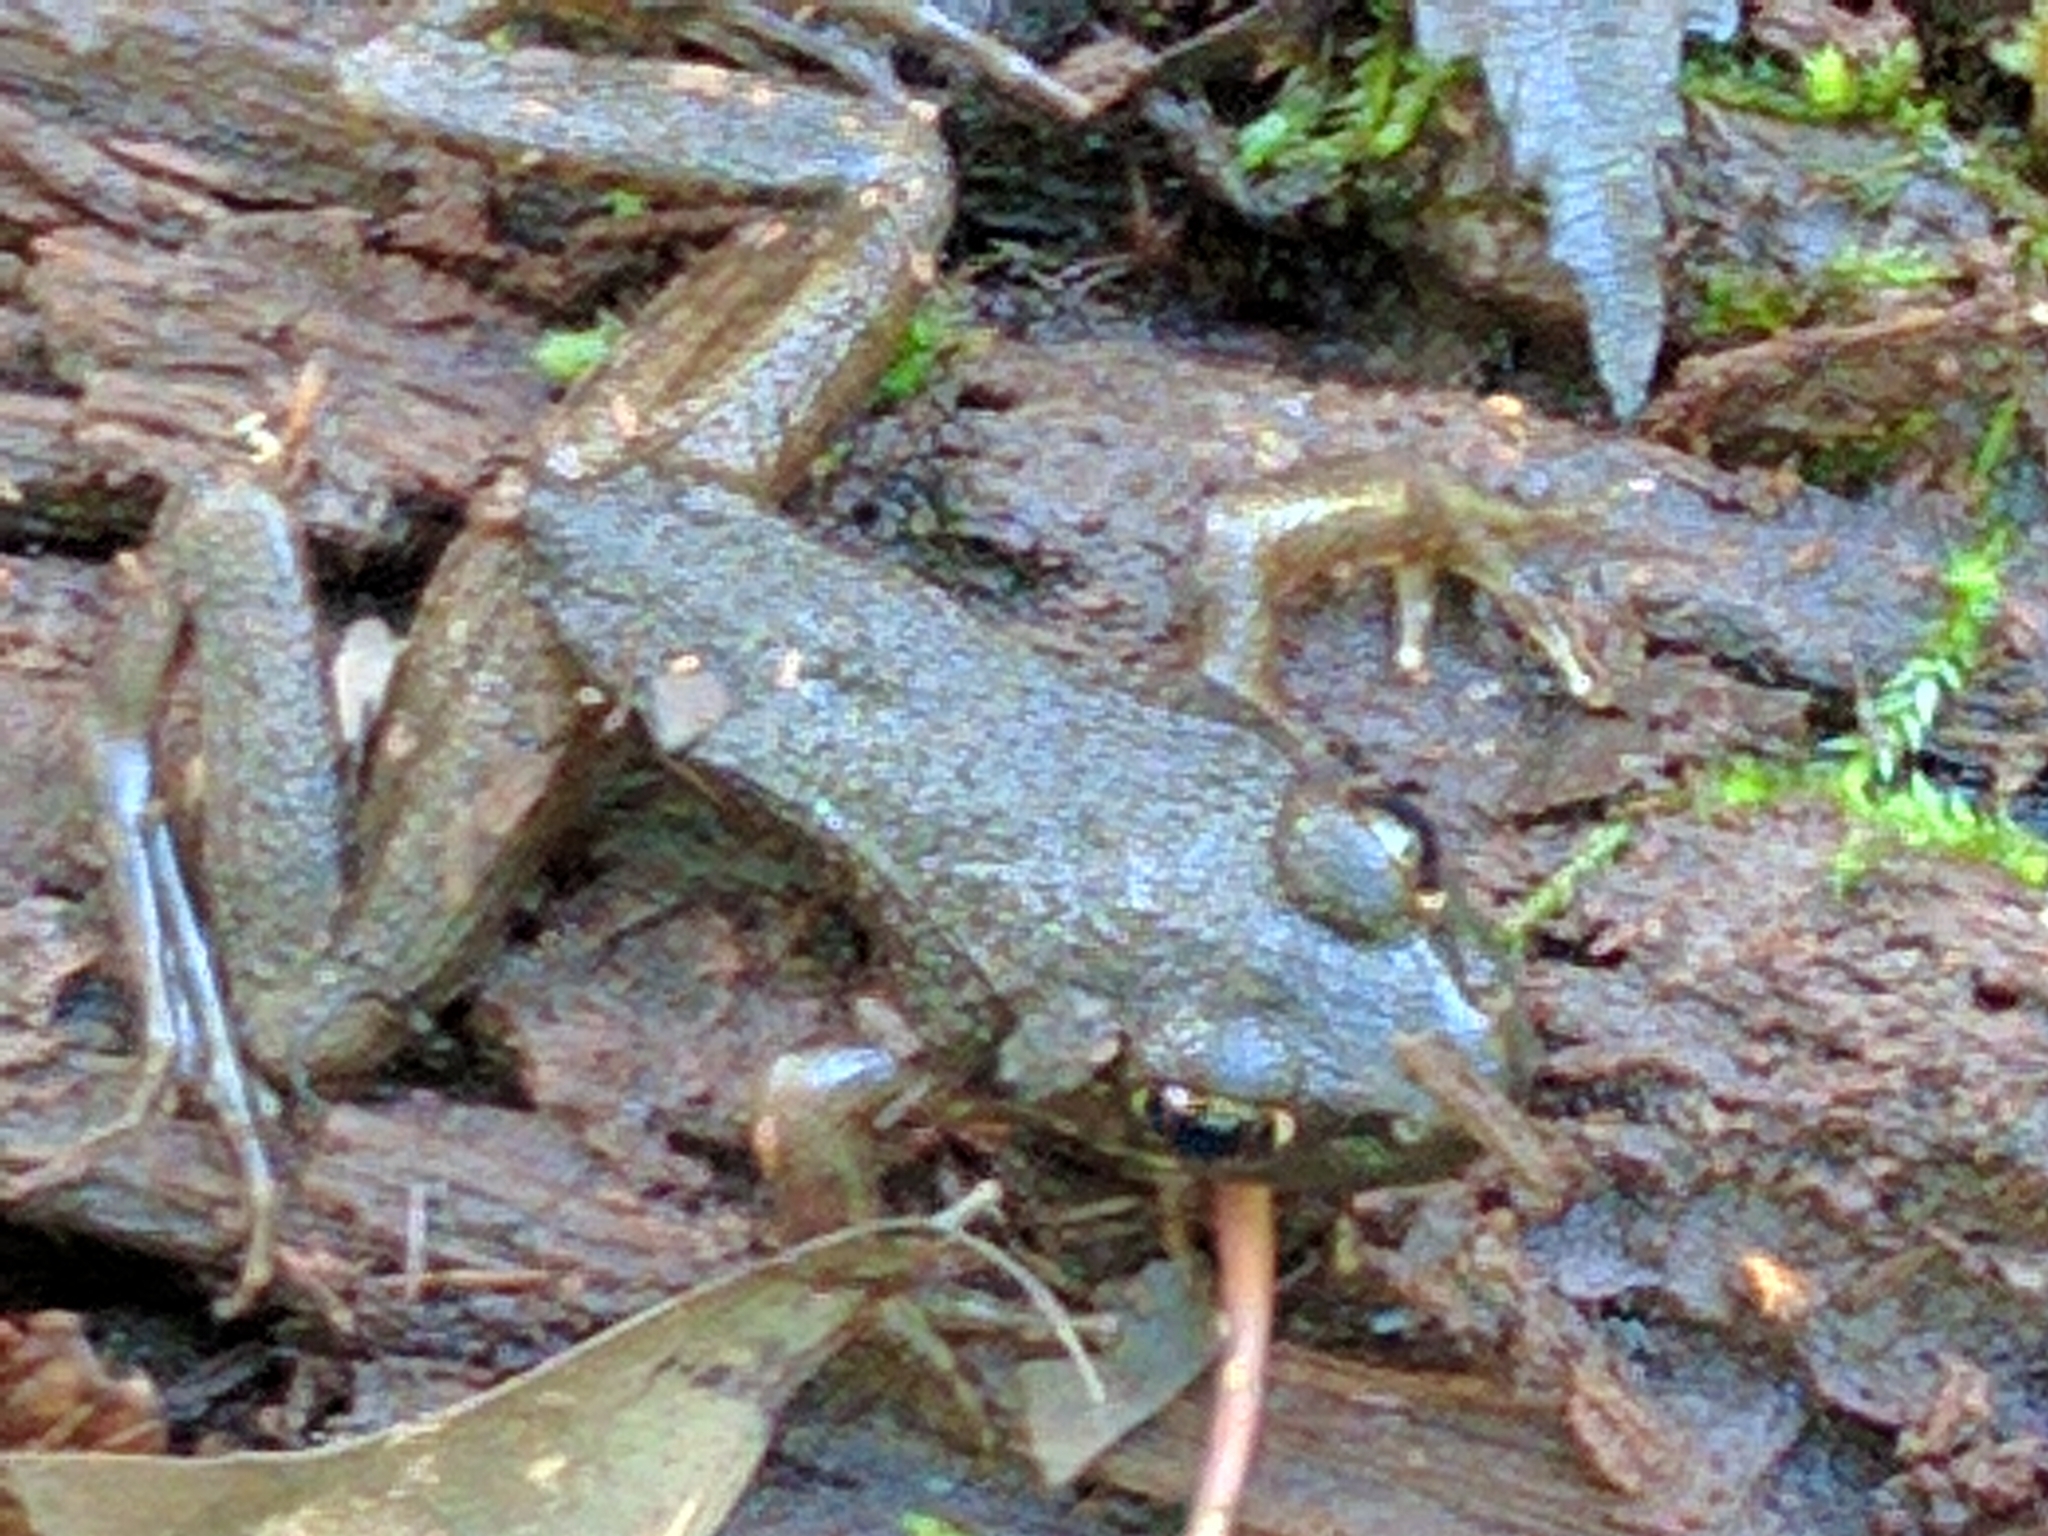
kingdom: Animalia
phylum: Chordata
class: Amphibia
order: Anura
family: Ranidae
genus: Lithobates
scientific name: Lithobates clamitans
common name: Green frog
